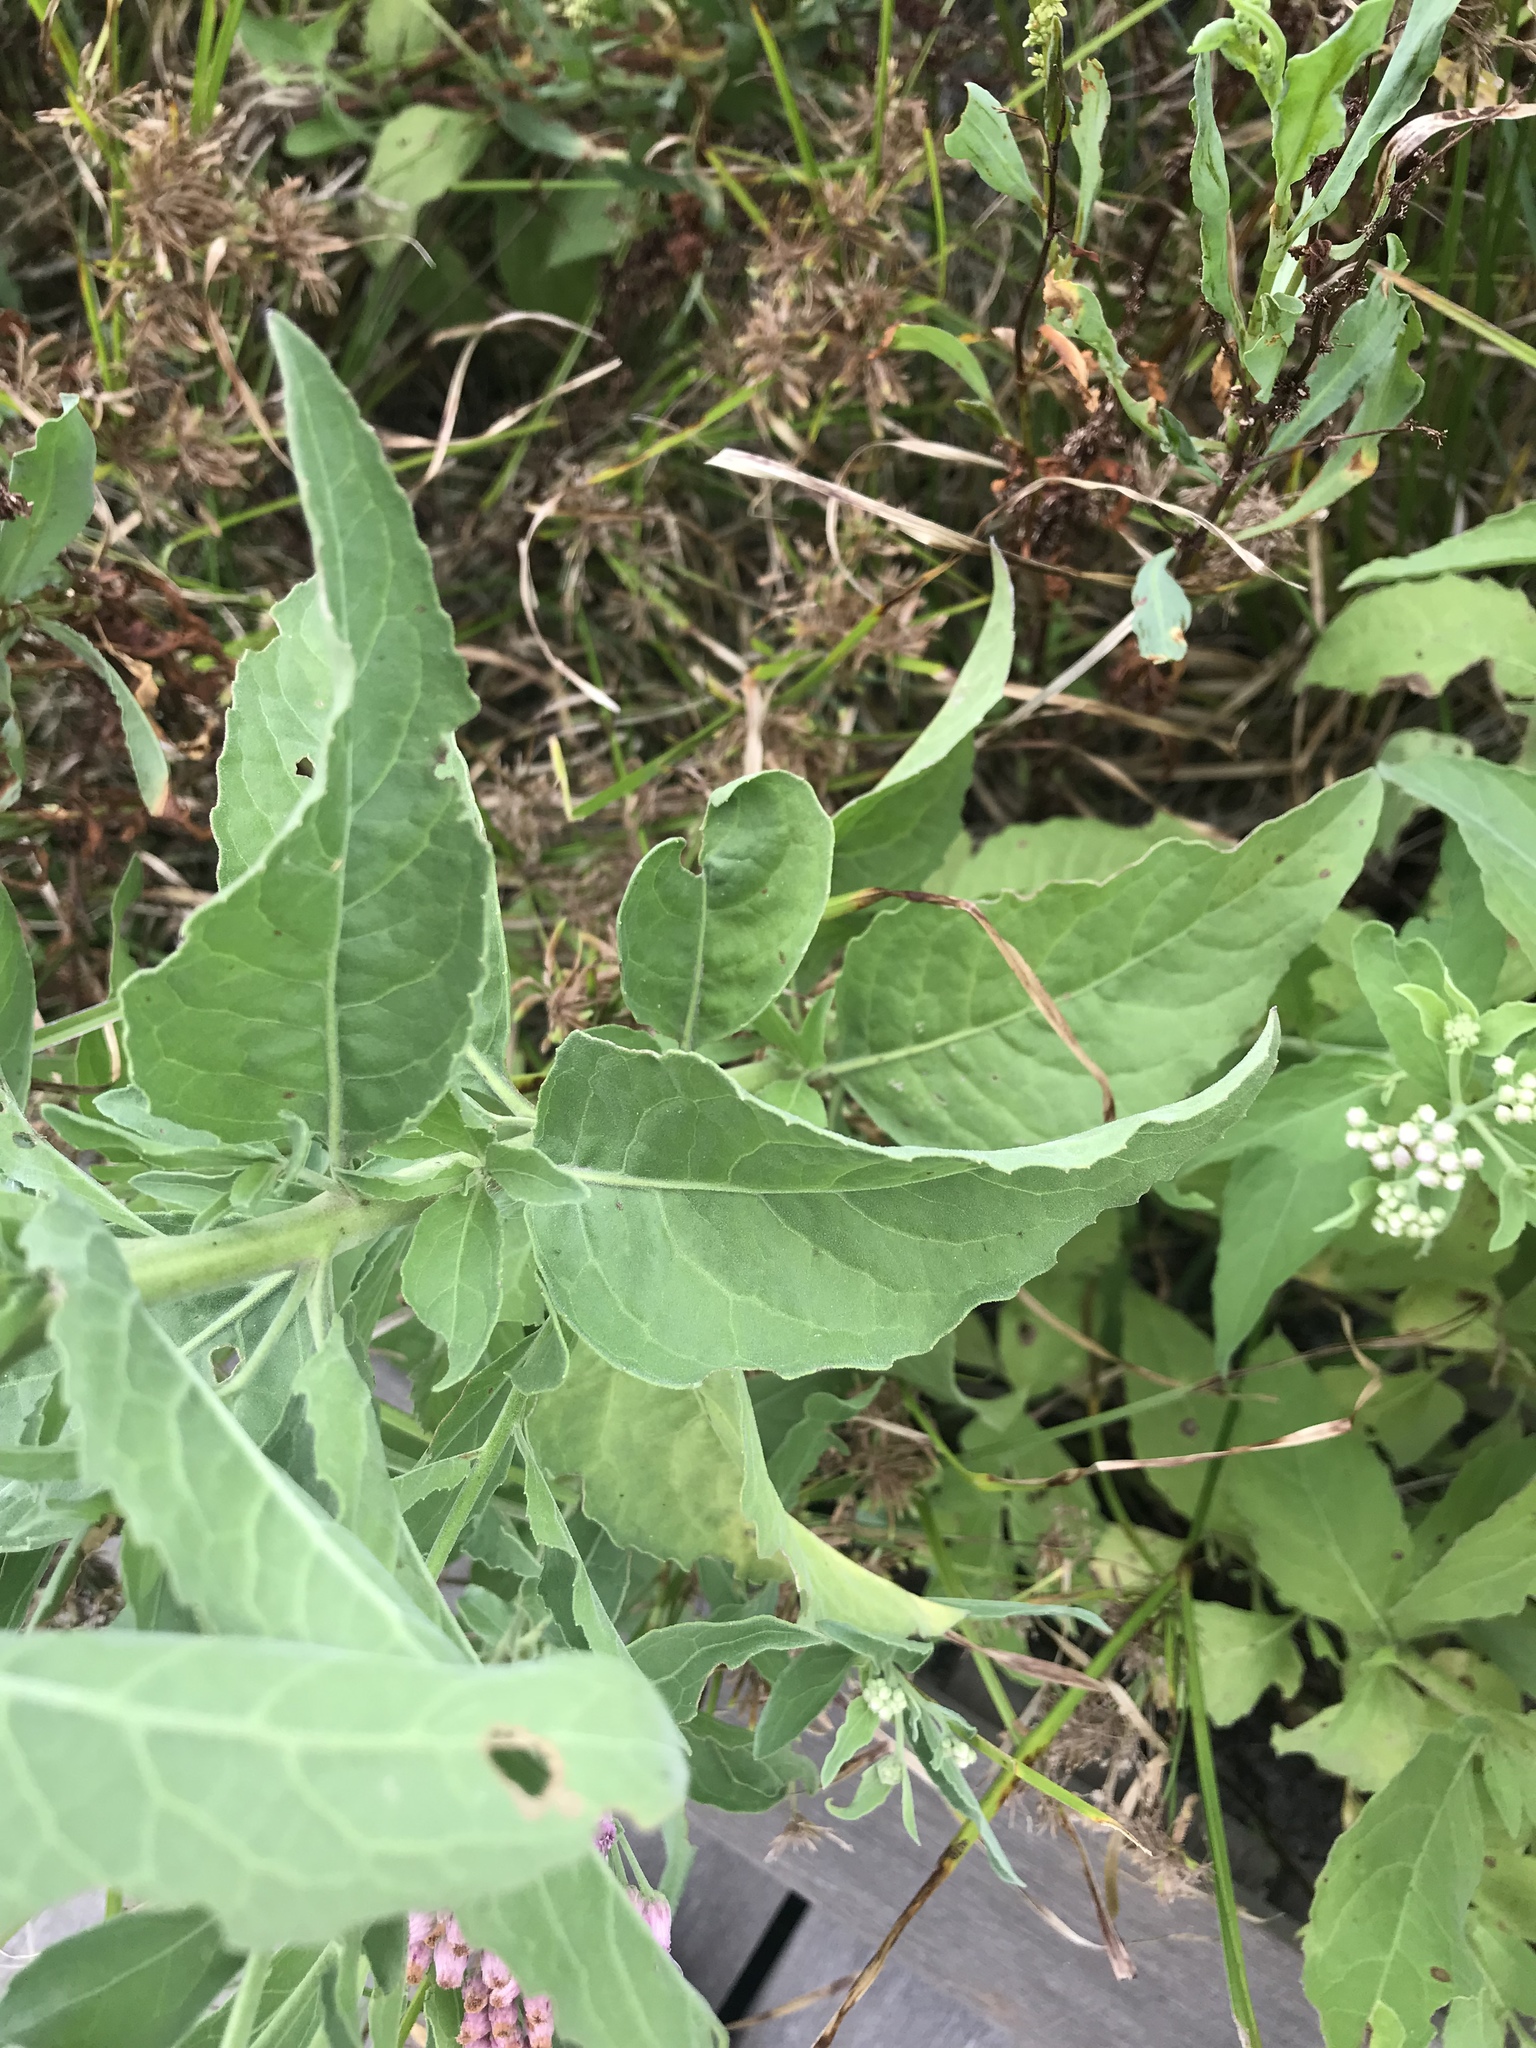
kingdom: Plantae
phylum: Tracheophyta
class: Magnoliopsida
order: Asterales
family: Asteraceae
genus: Pluchea
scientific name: Pluchea odorata
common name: Saltmarsh fleabane
